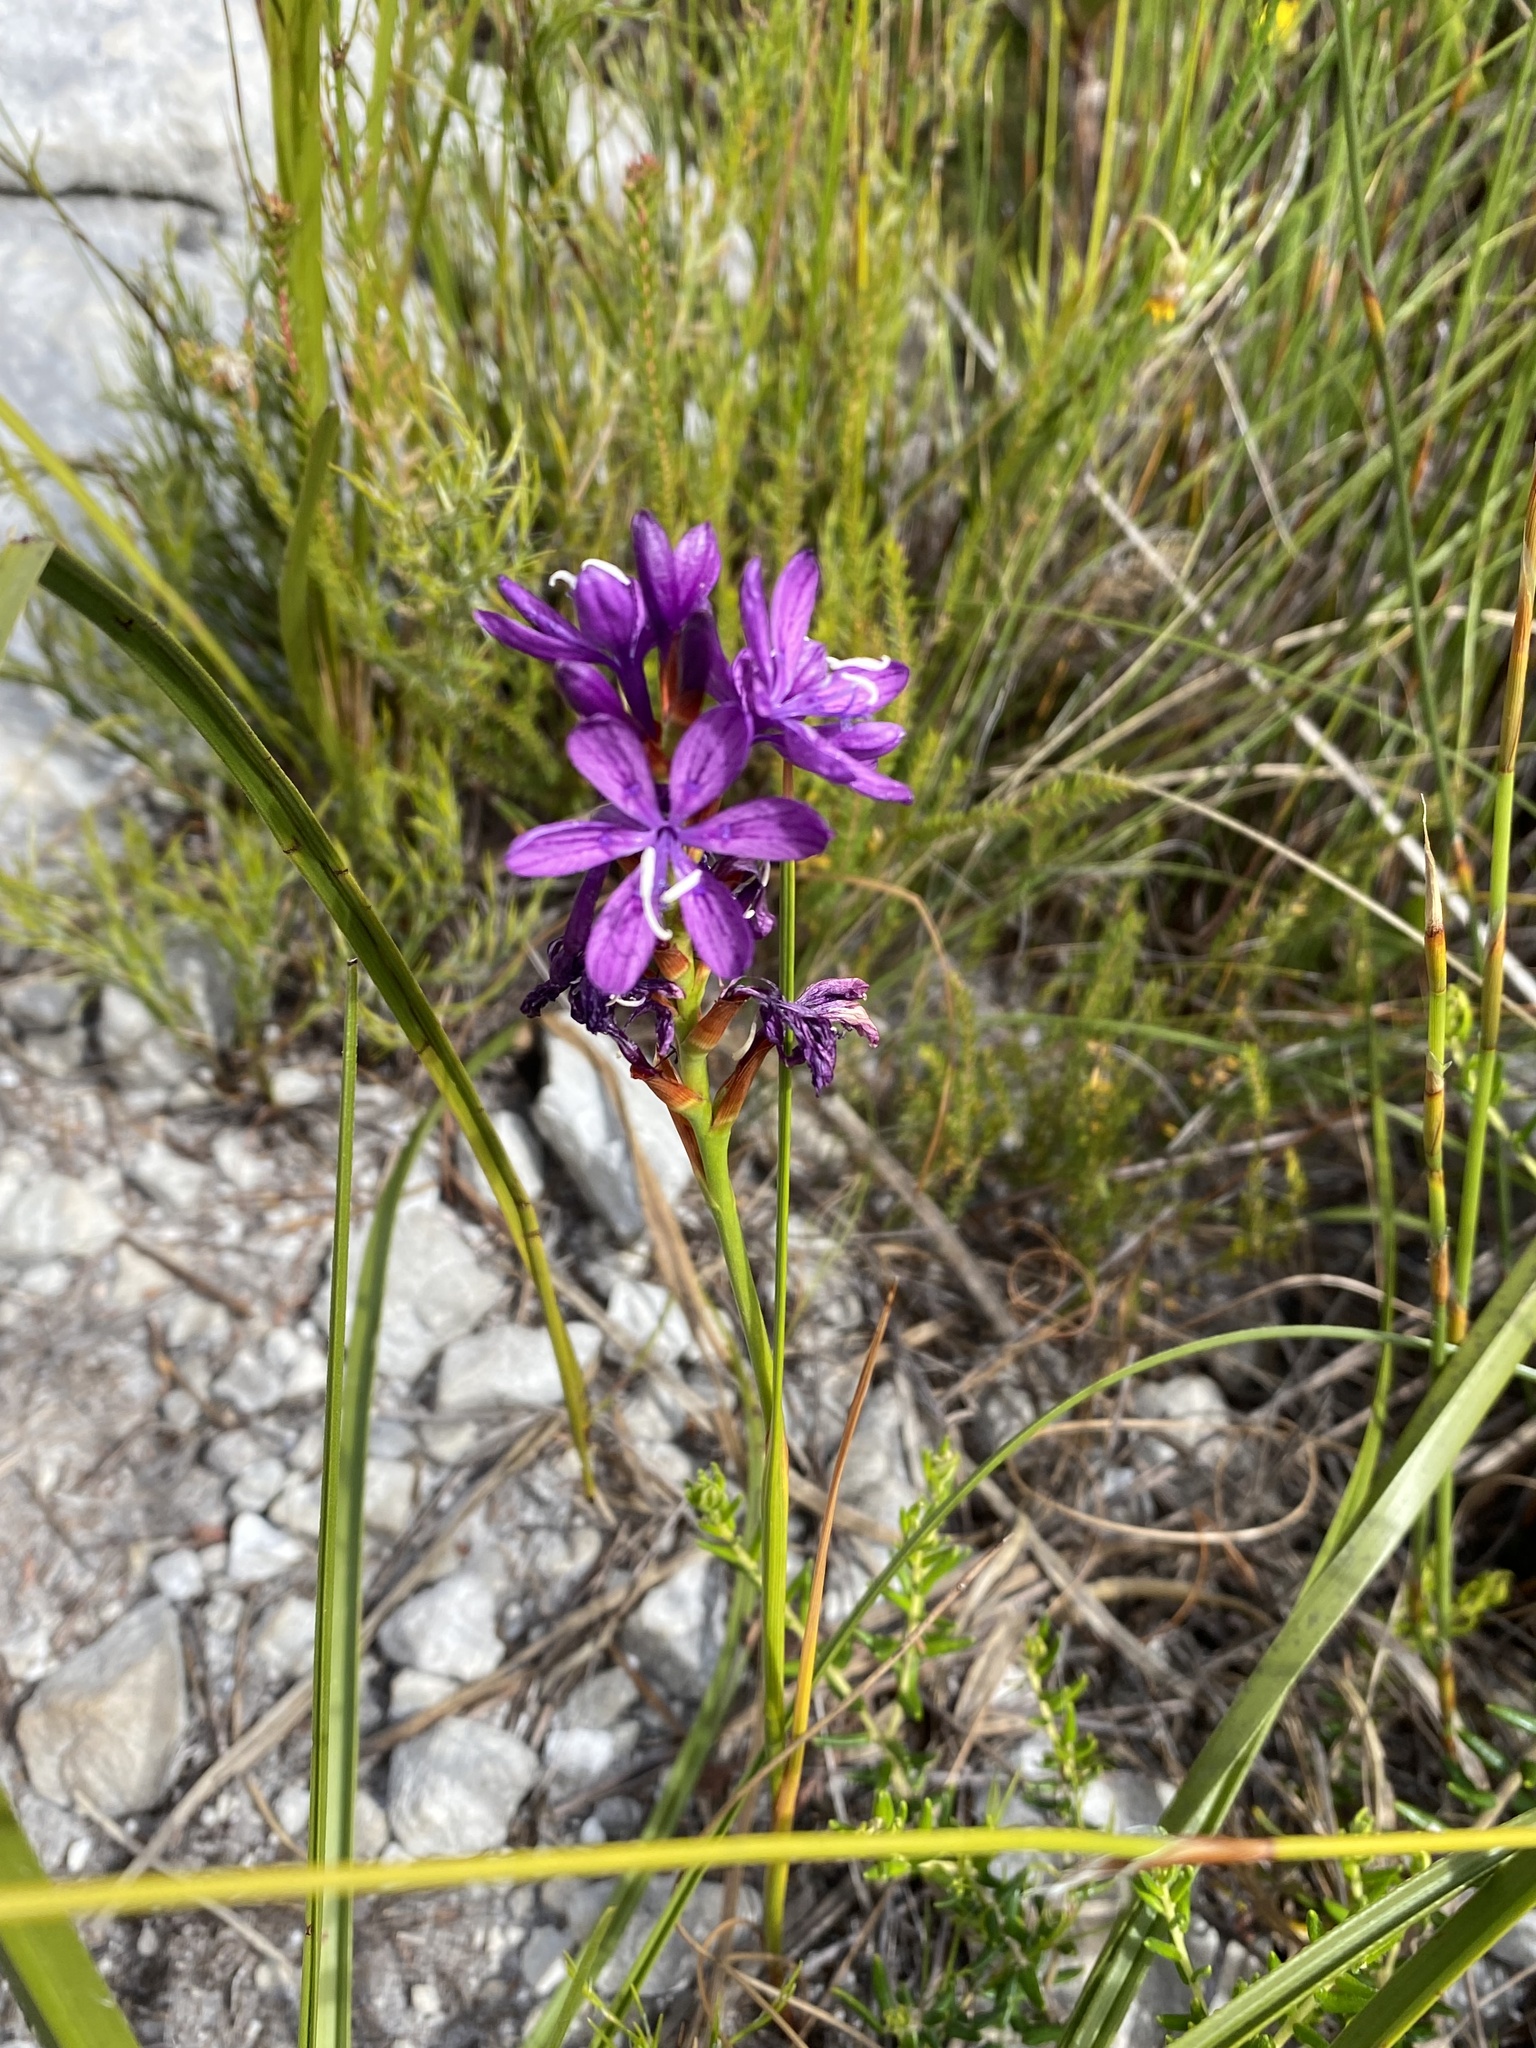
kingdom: Plantae
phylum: Tracheophyta
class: Liliopsida
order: Asparagales
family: Iridaceae
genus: Thereianthus
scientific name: Thereianthus bracteolatus
